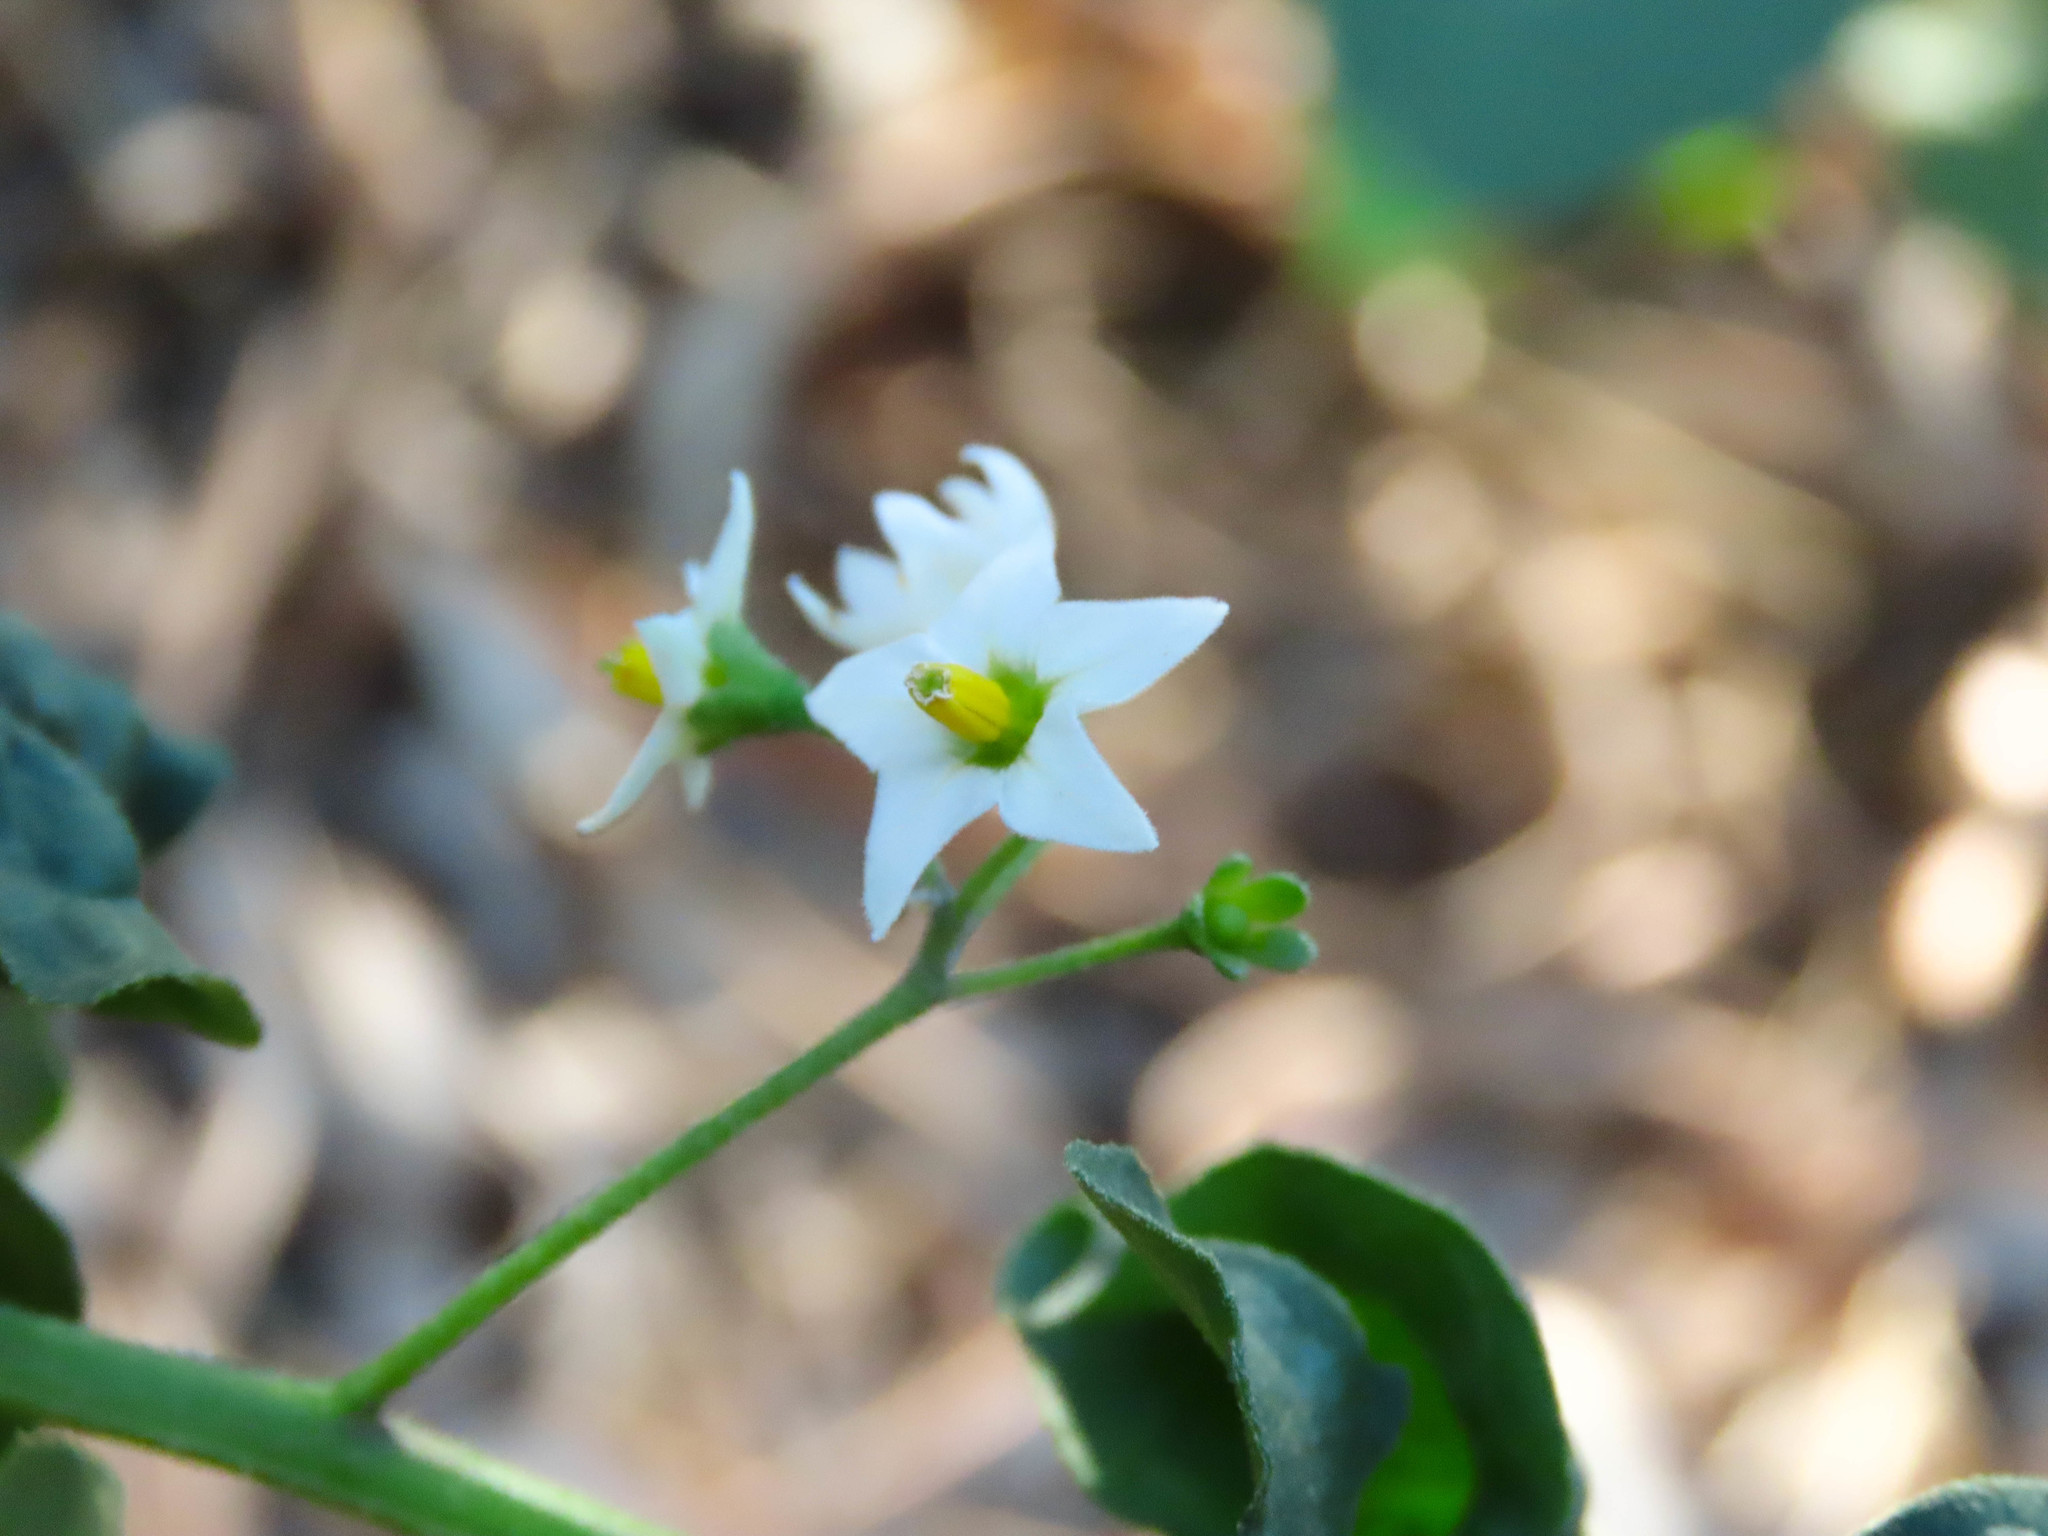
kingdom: Plantae
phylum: Tracheophyta
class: Magnoliopsida
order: Solanales
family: Solanaceae
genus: Solanum
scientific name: Solanum nigrum
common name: Black nightshade
